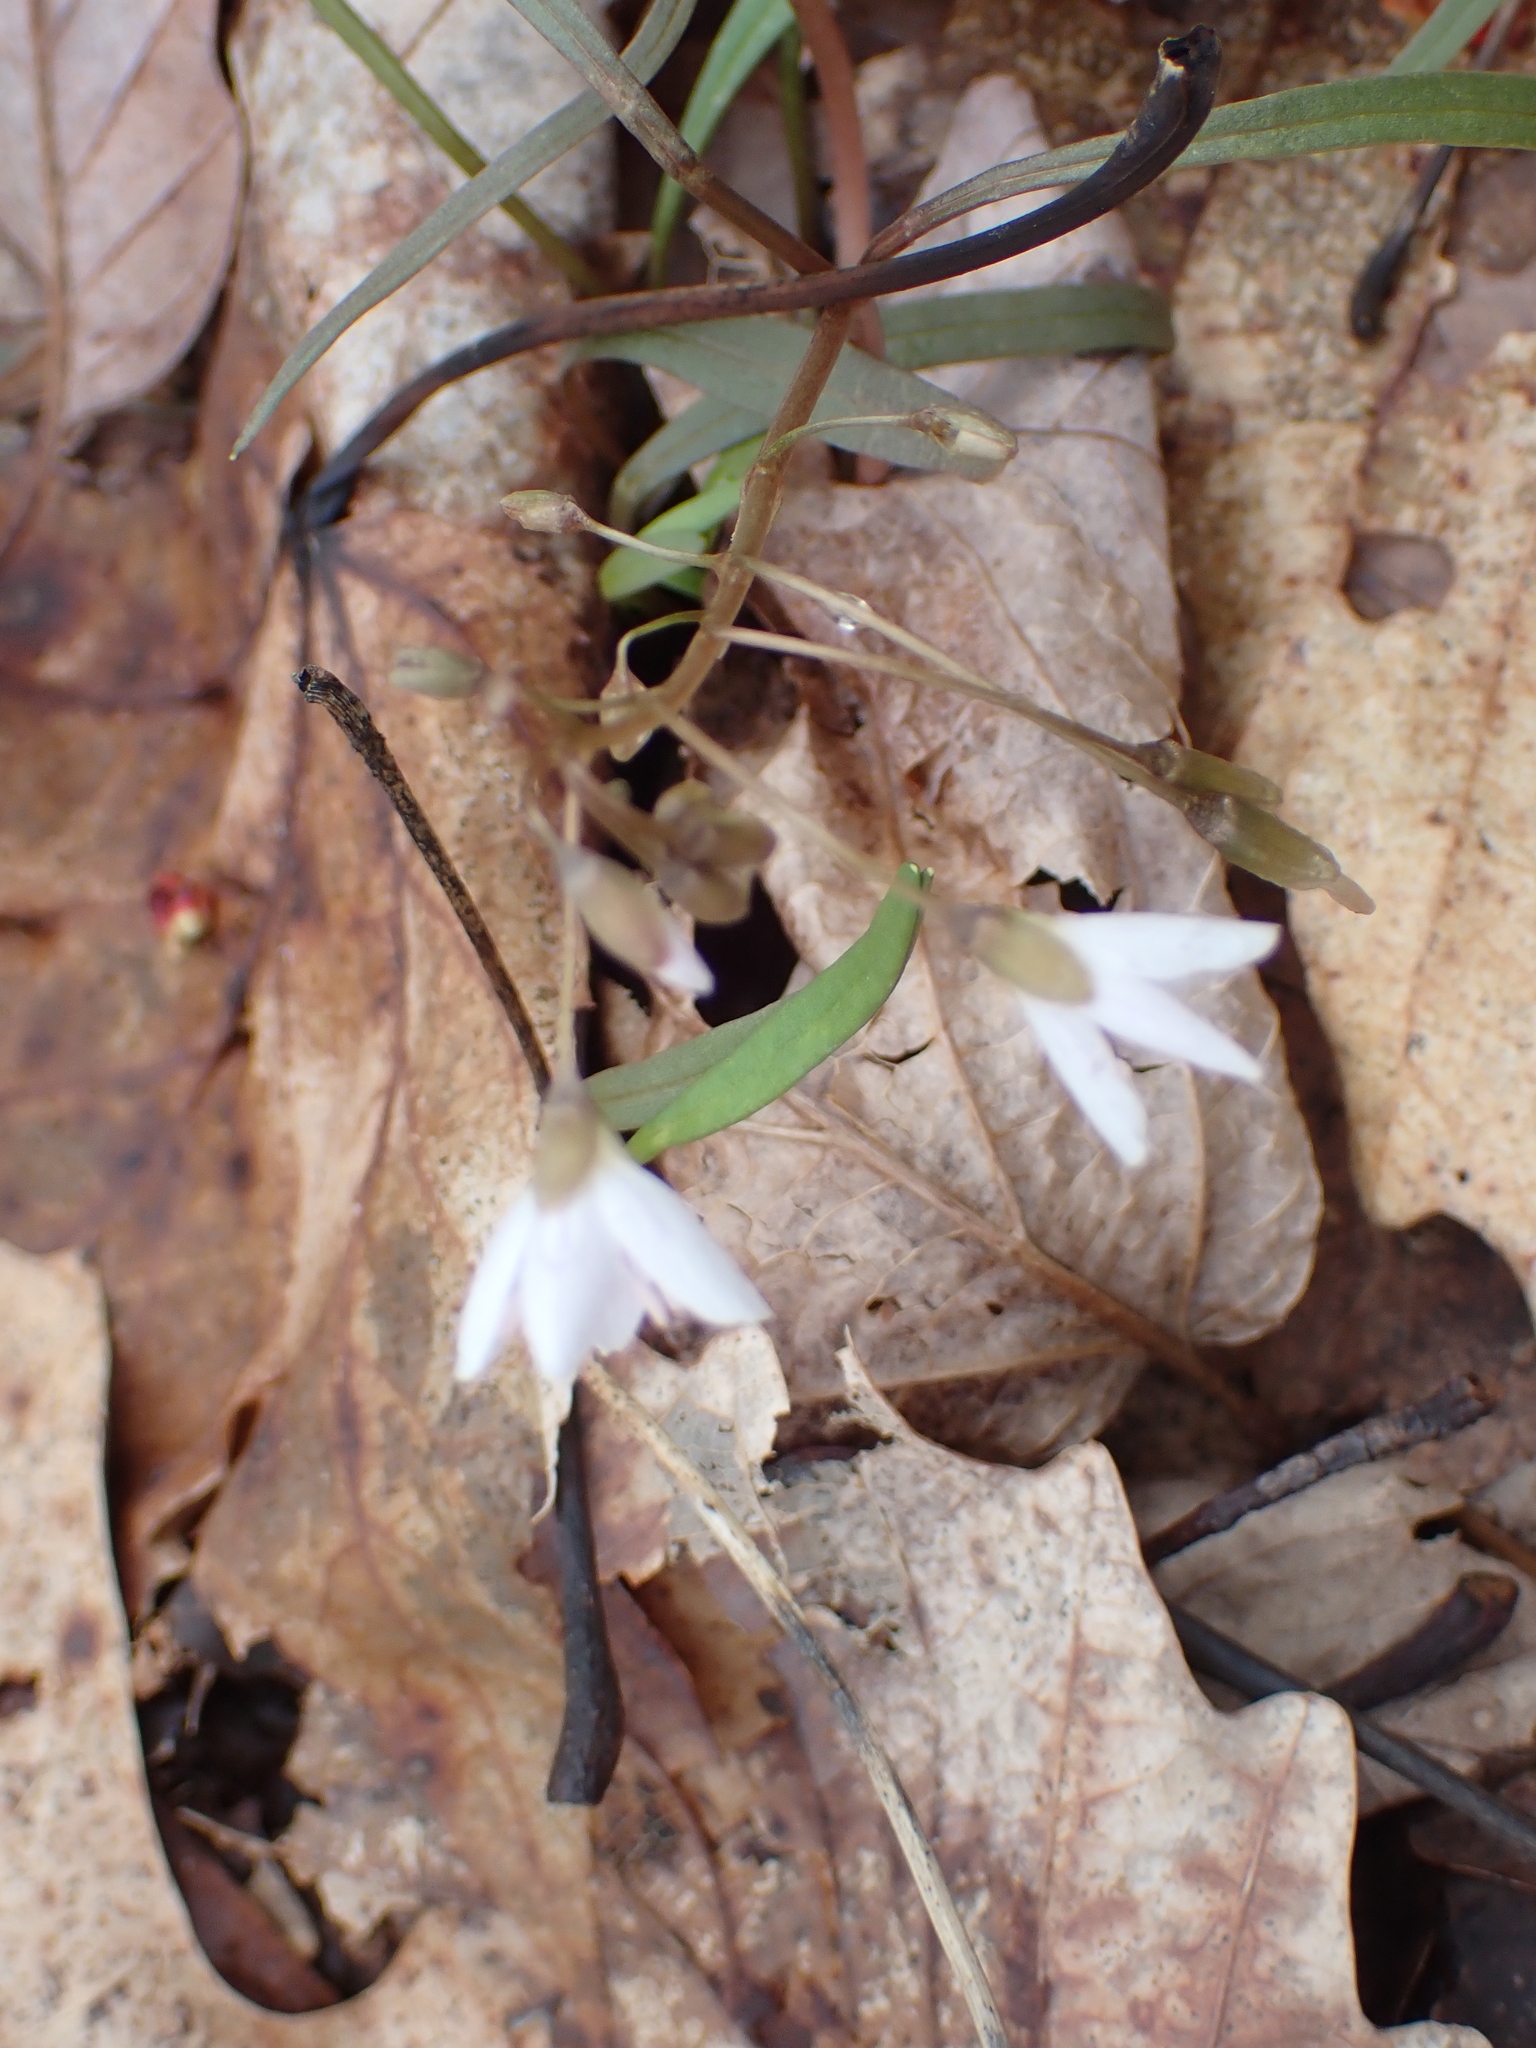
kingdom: Plantae
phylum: Tracheophyta
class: Magnoliopsida
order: Caryophyllales
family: Montiaceae
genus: Claytonia
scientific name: Claytonia virginica
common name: Virginia springbeauty
